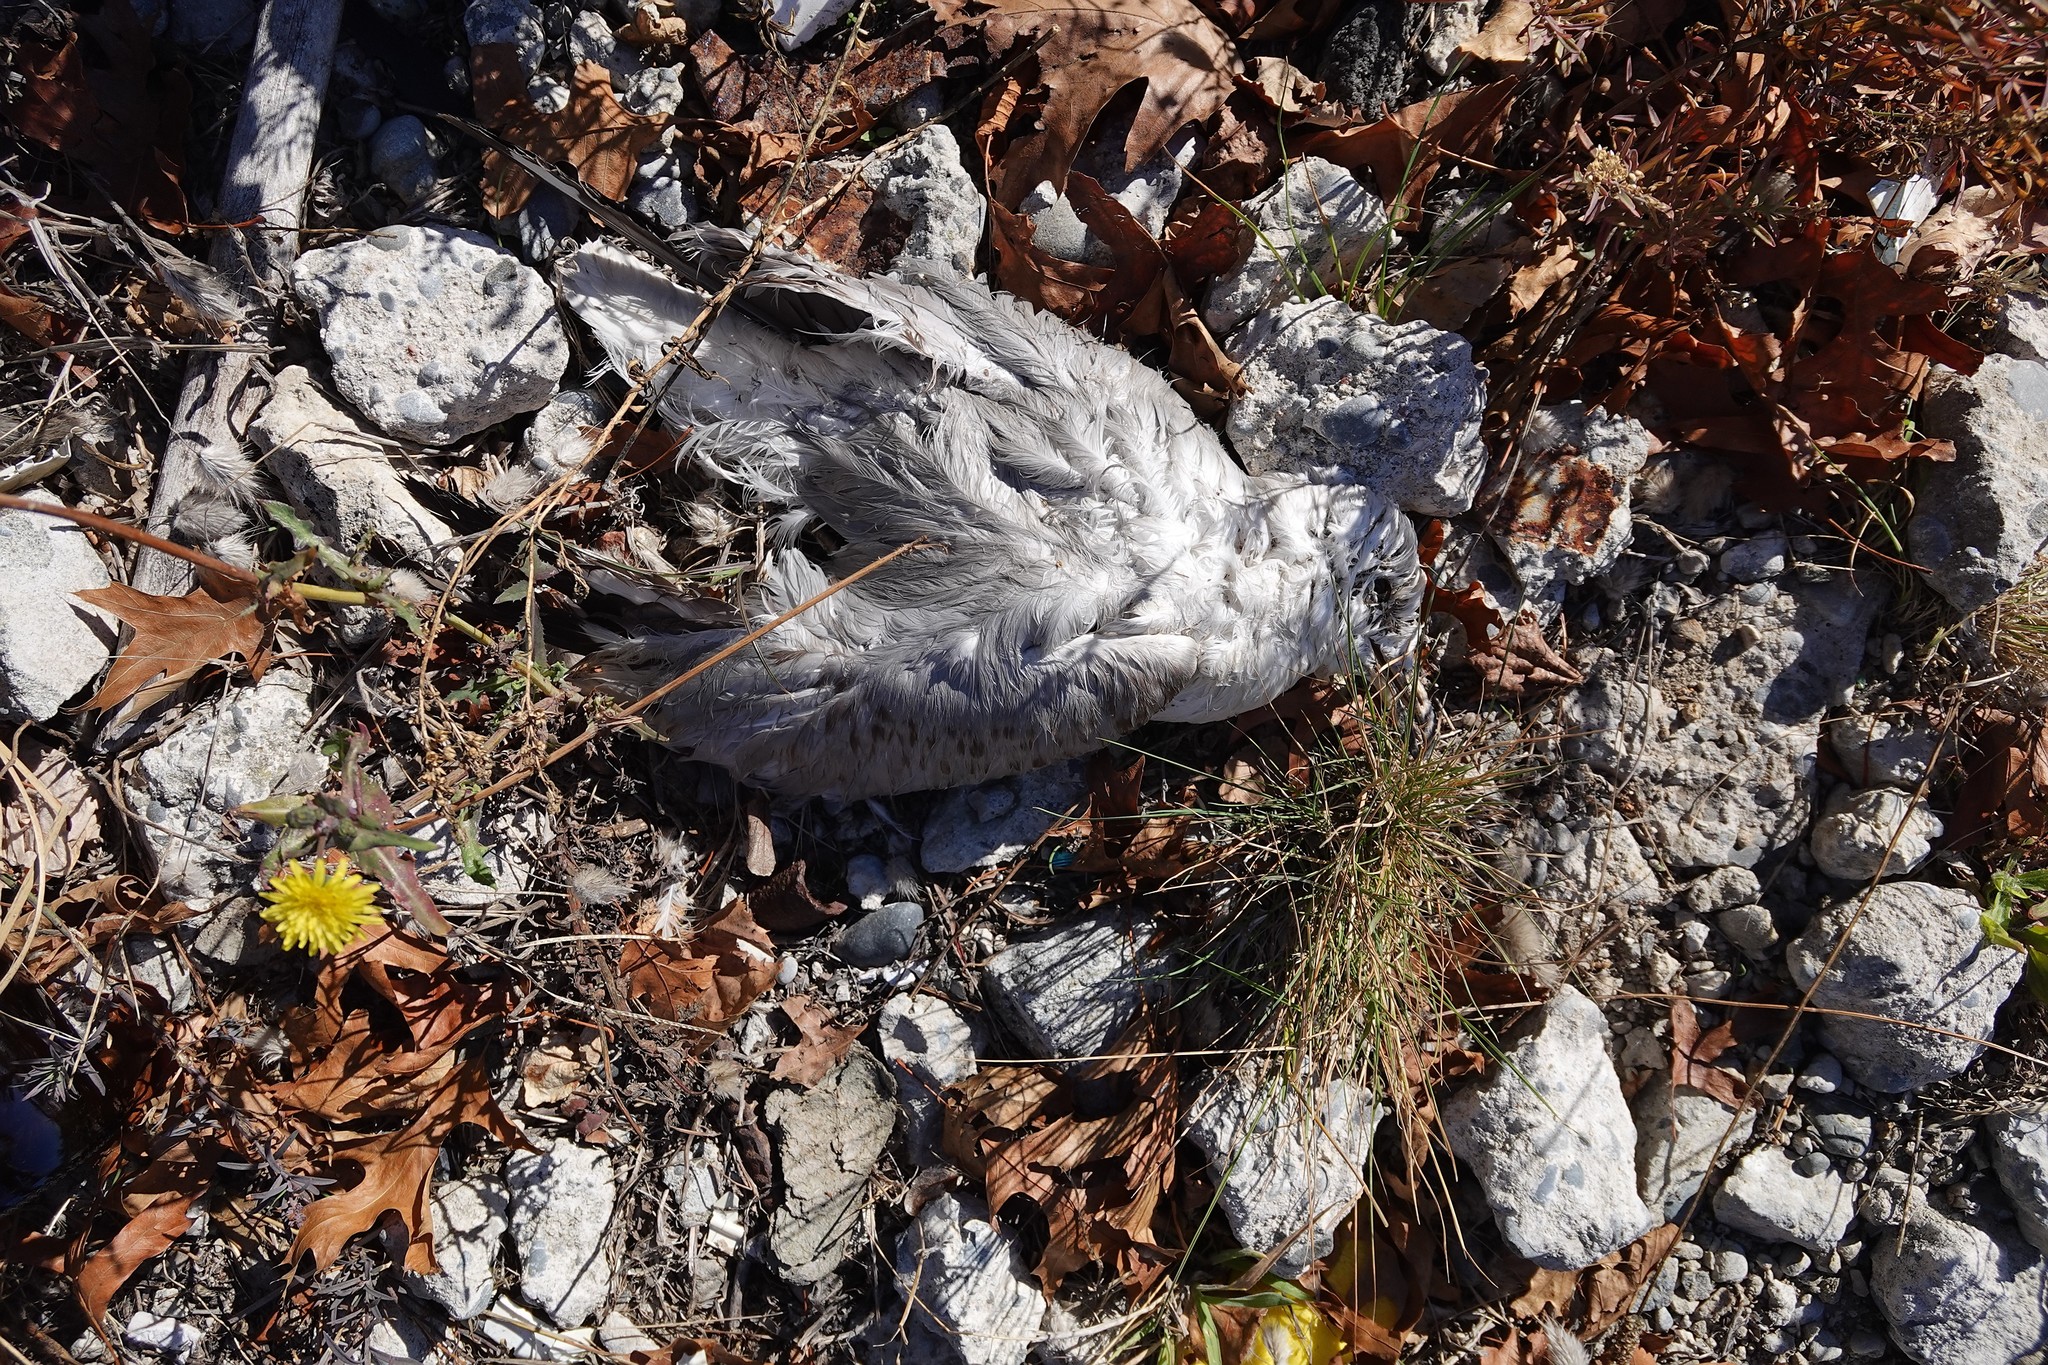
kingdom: Animalia
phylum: Chordata
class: Aves
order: Charadriiformes
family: Laridae
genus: Chroicocephalus
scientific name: Chroicocephalus novaehollandiae
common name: Silver gull
